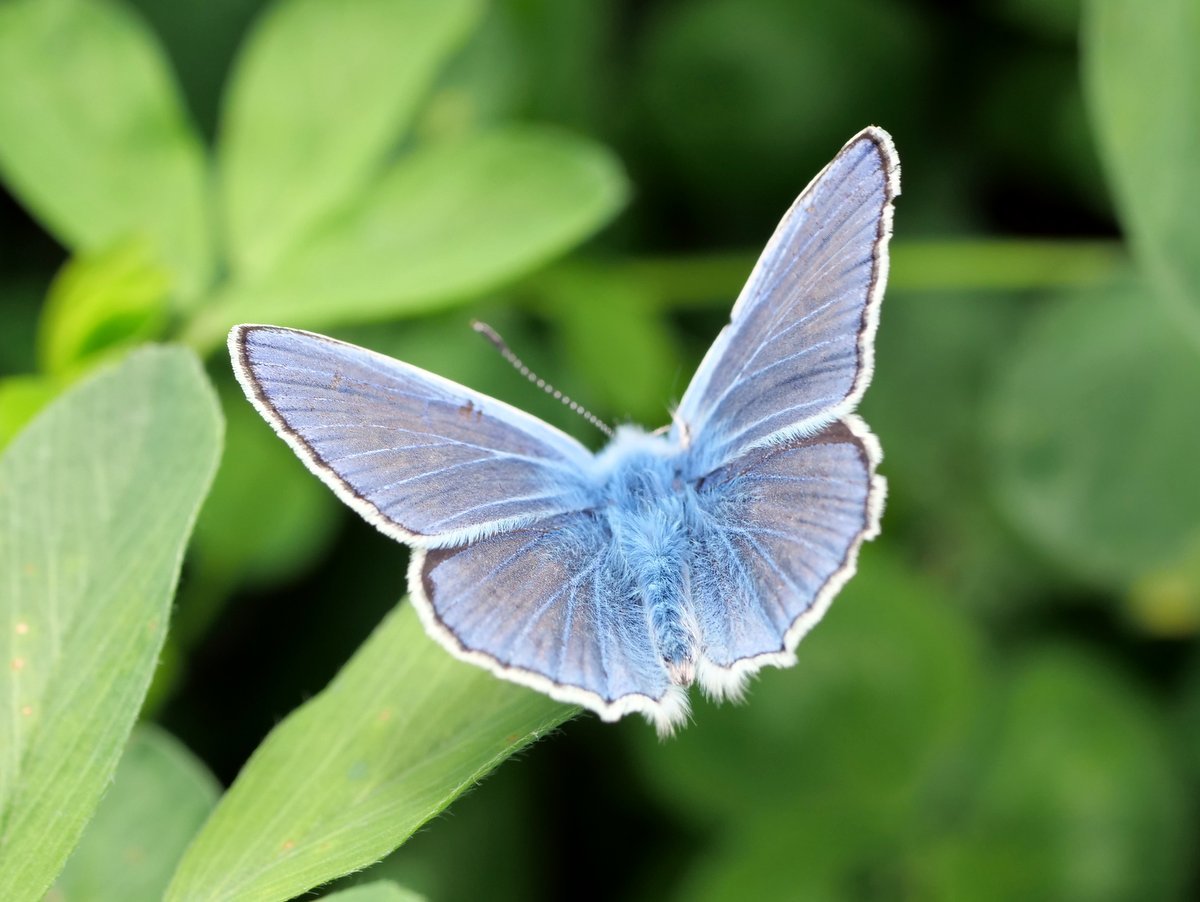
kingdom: Animalia
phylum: Arthropoda
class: Insecta
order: Lepidoptera
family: Lycaenidae
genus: Polyommatus
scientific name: Polyommatus icarus
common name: Common blue
